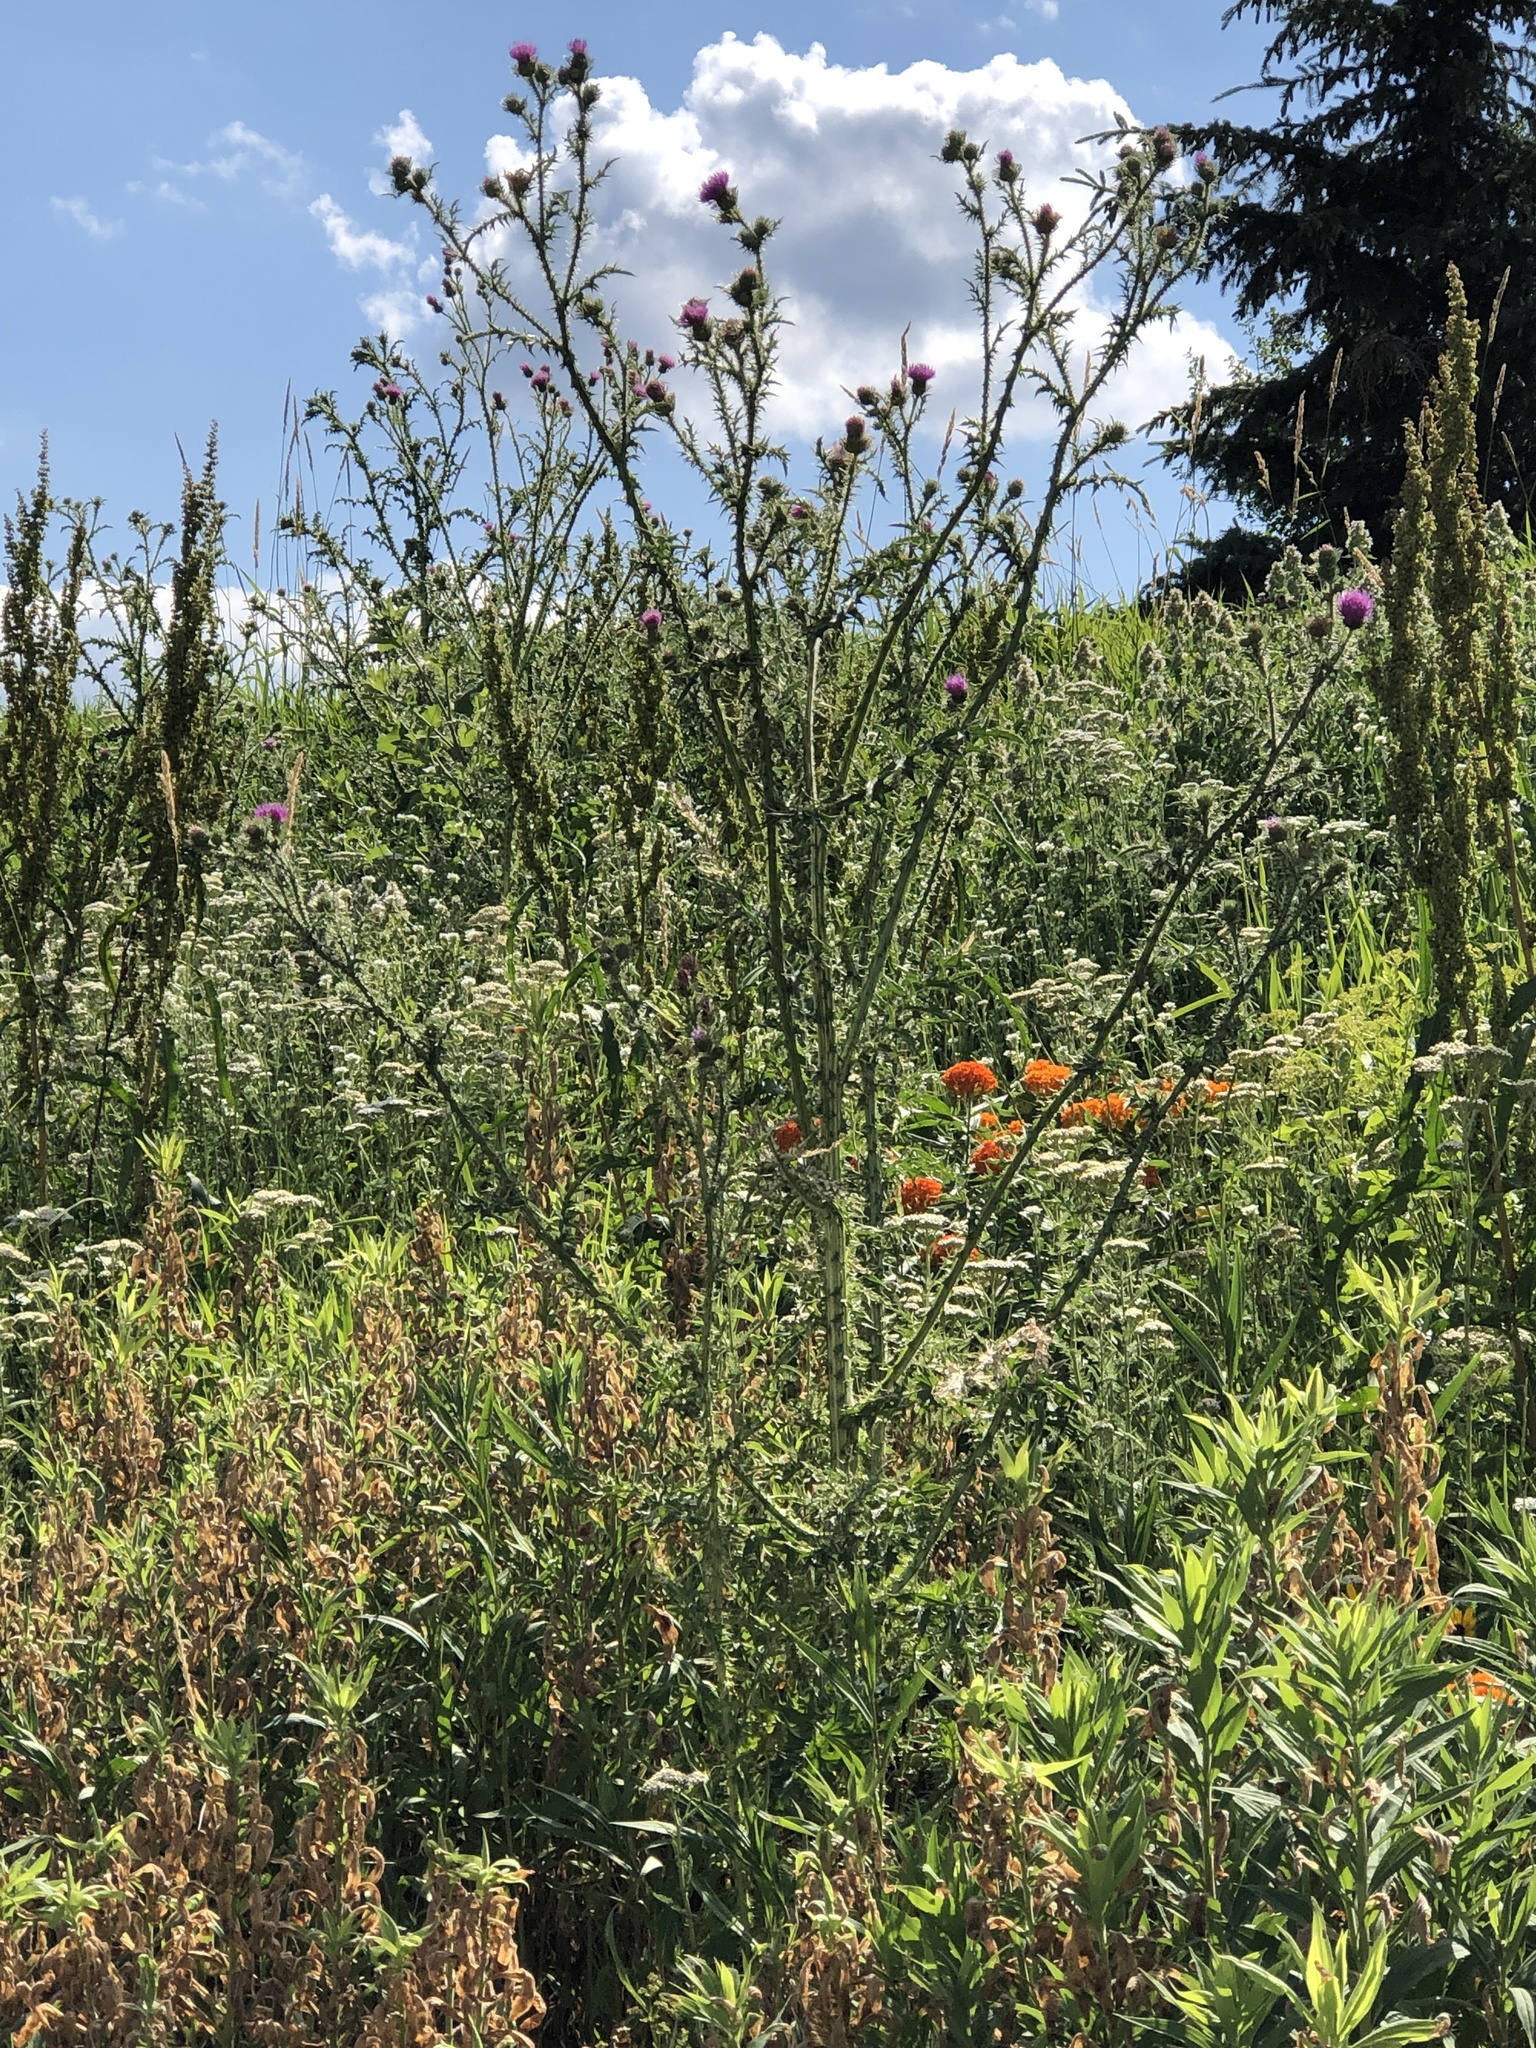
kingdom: Plantae
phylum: Tracheophyta
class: Magnoliopsida
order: Asterales
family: Asteraceae
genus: Carduus
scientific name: Carduus acanthoides
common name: Plumeless thistle
